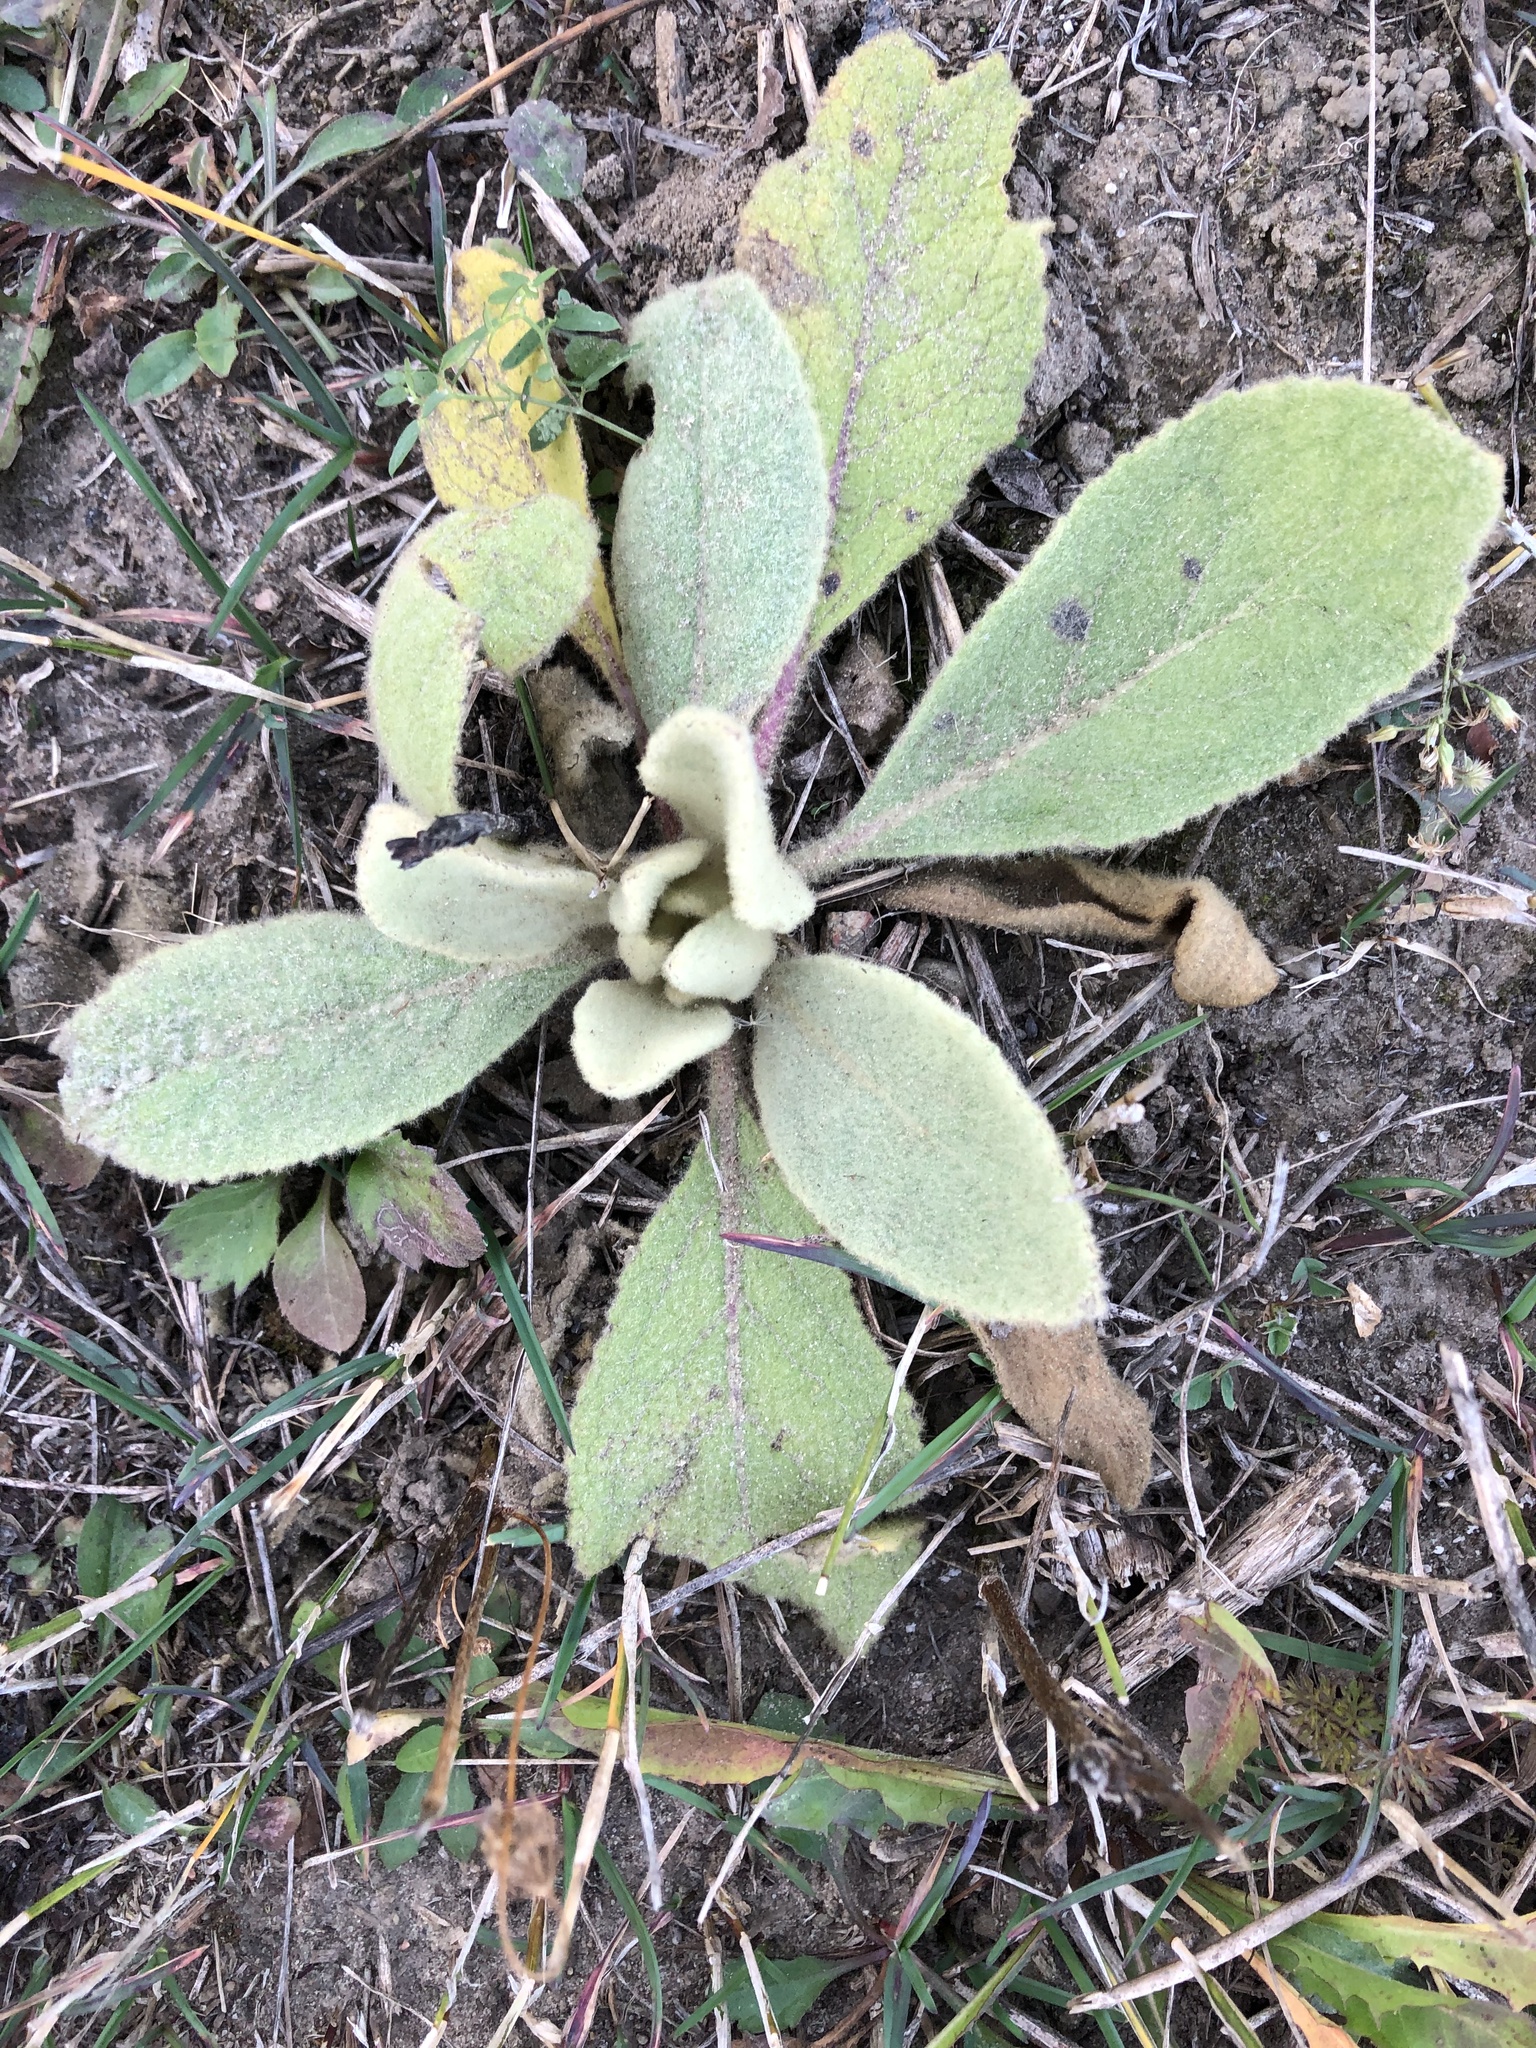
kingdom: Plantae
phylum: Tracheophyta
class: Magnoliopsida
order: Lamiales
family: Scrophulariaceae
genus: Verbascum
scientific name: Verbascum thapsus
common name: Common mullein
